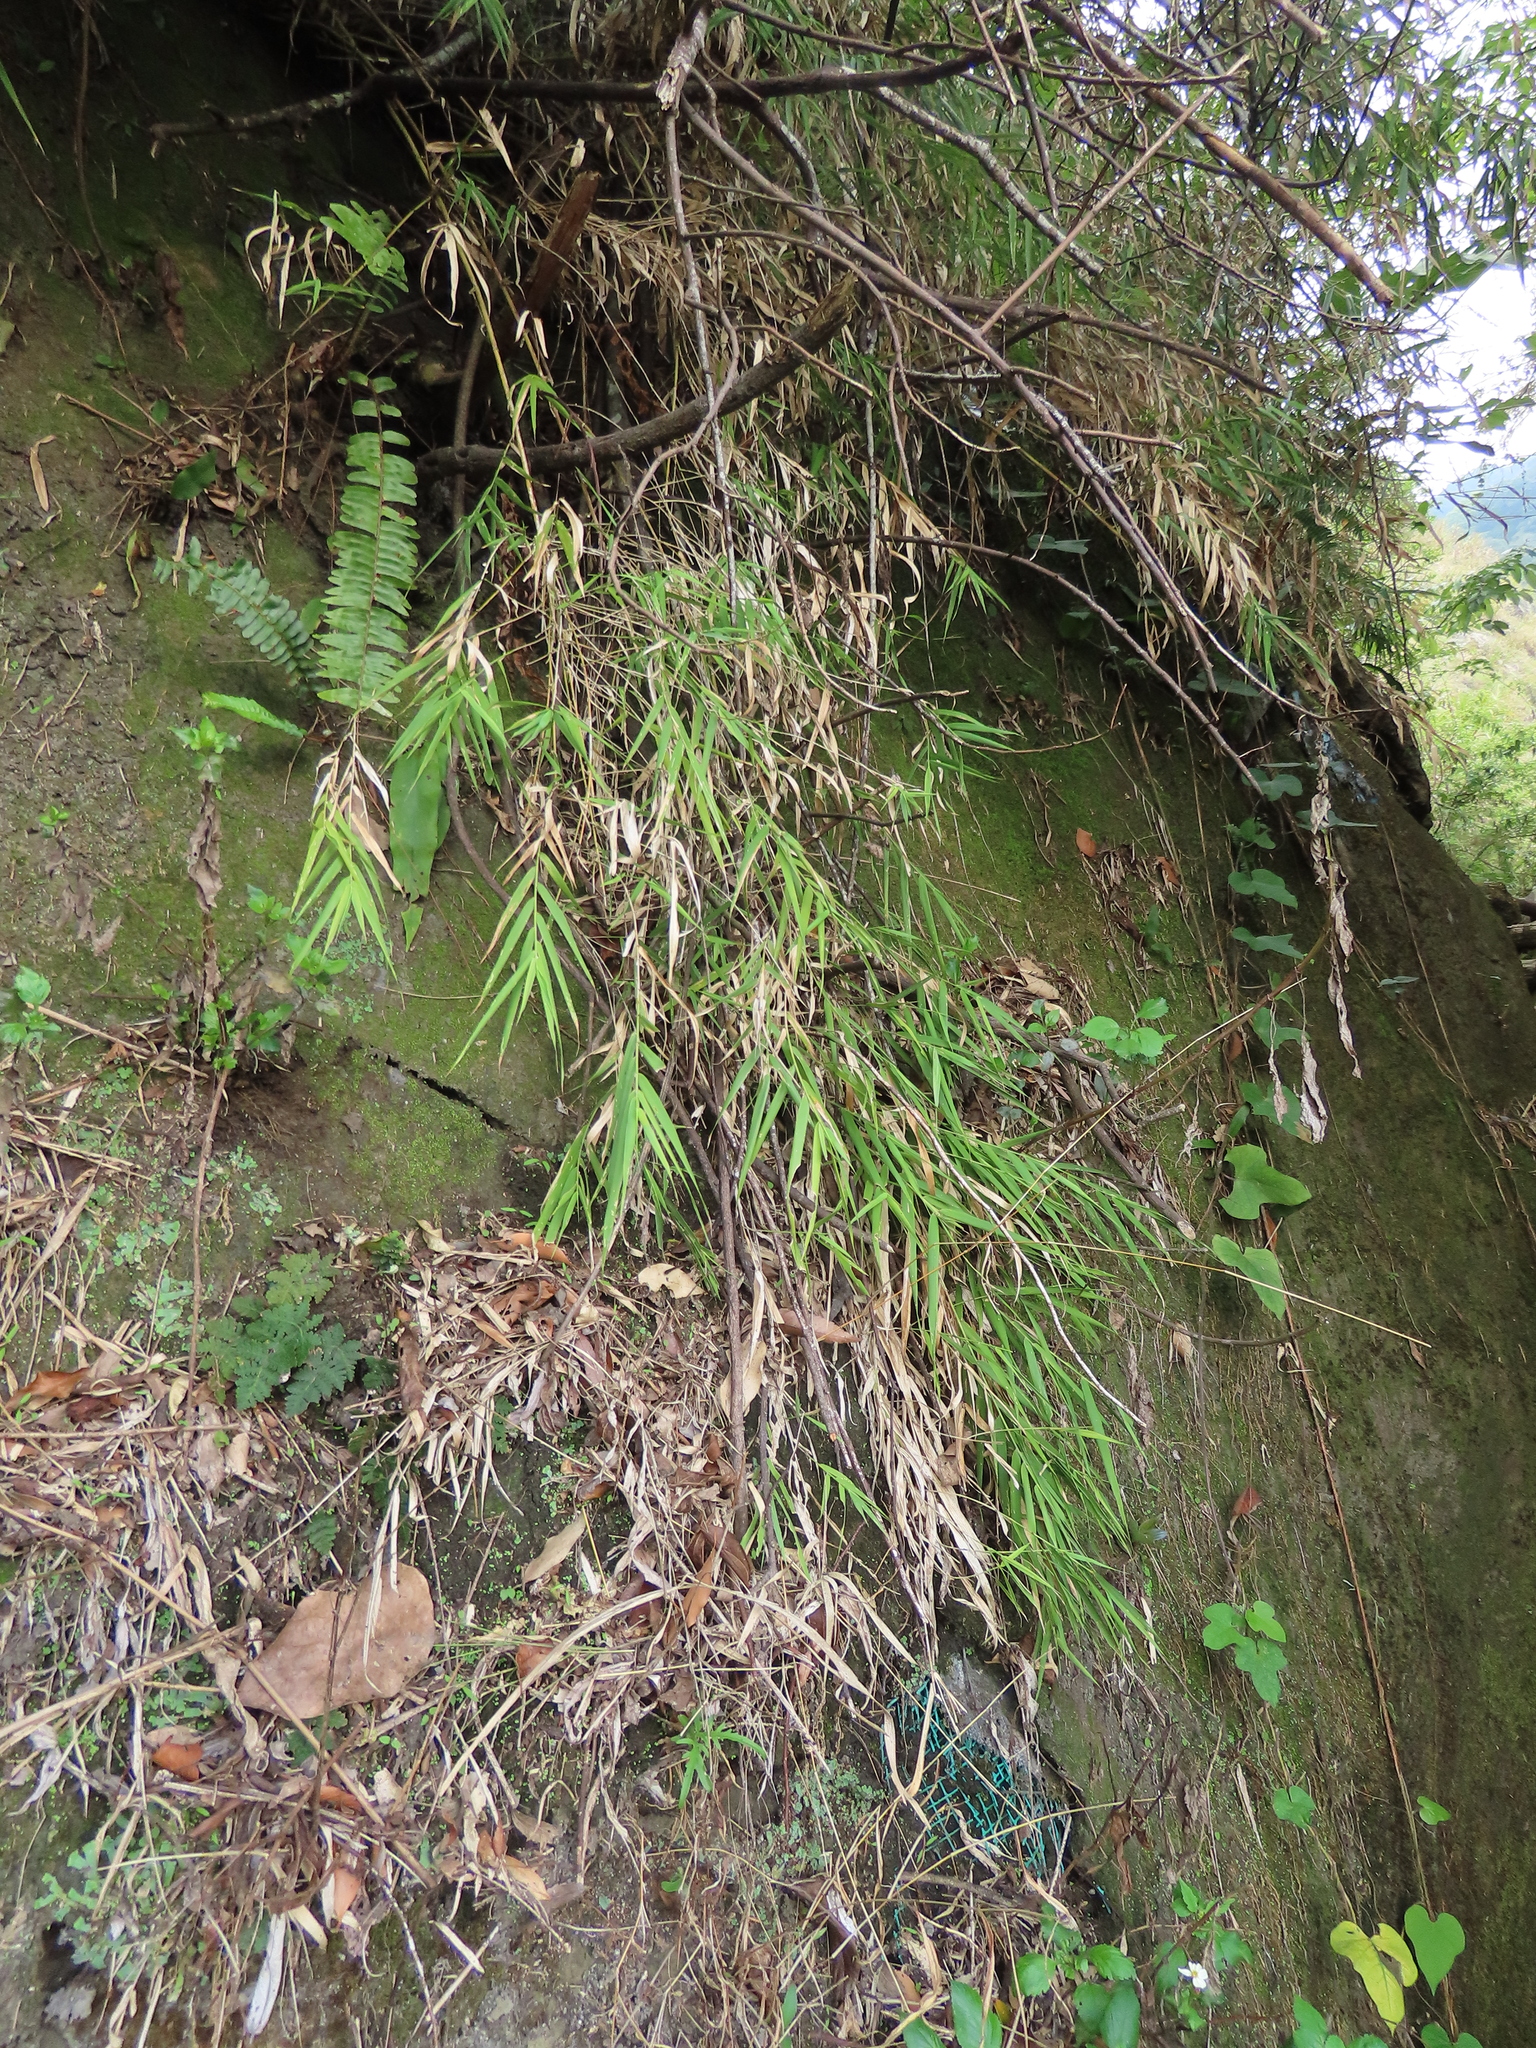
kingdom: Plantae
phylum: Tracheophyta
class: Liliopsida
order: Poales
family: Poaceae
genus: Arundo
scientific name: Arundo formosana
